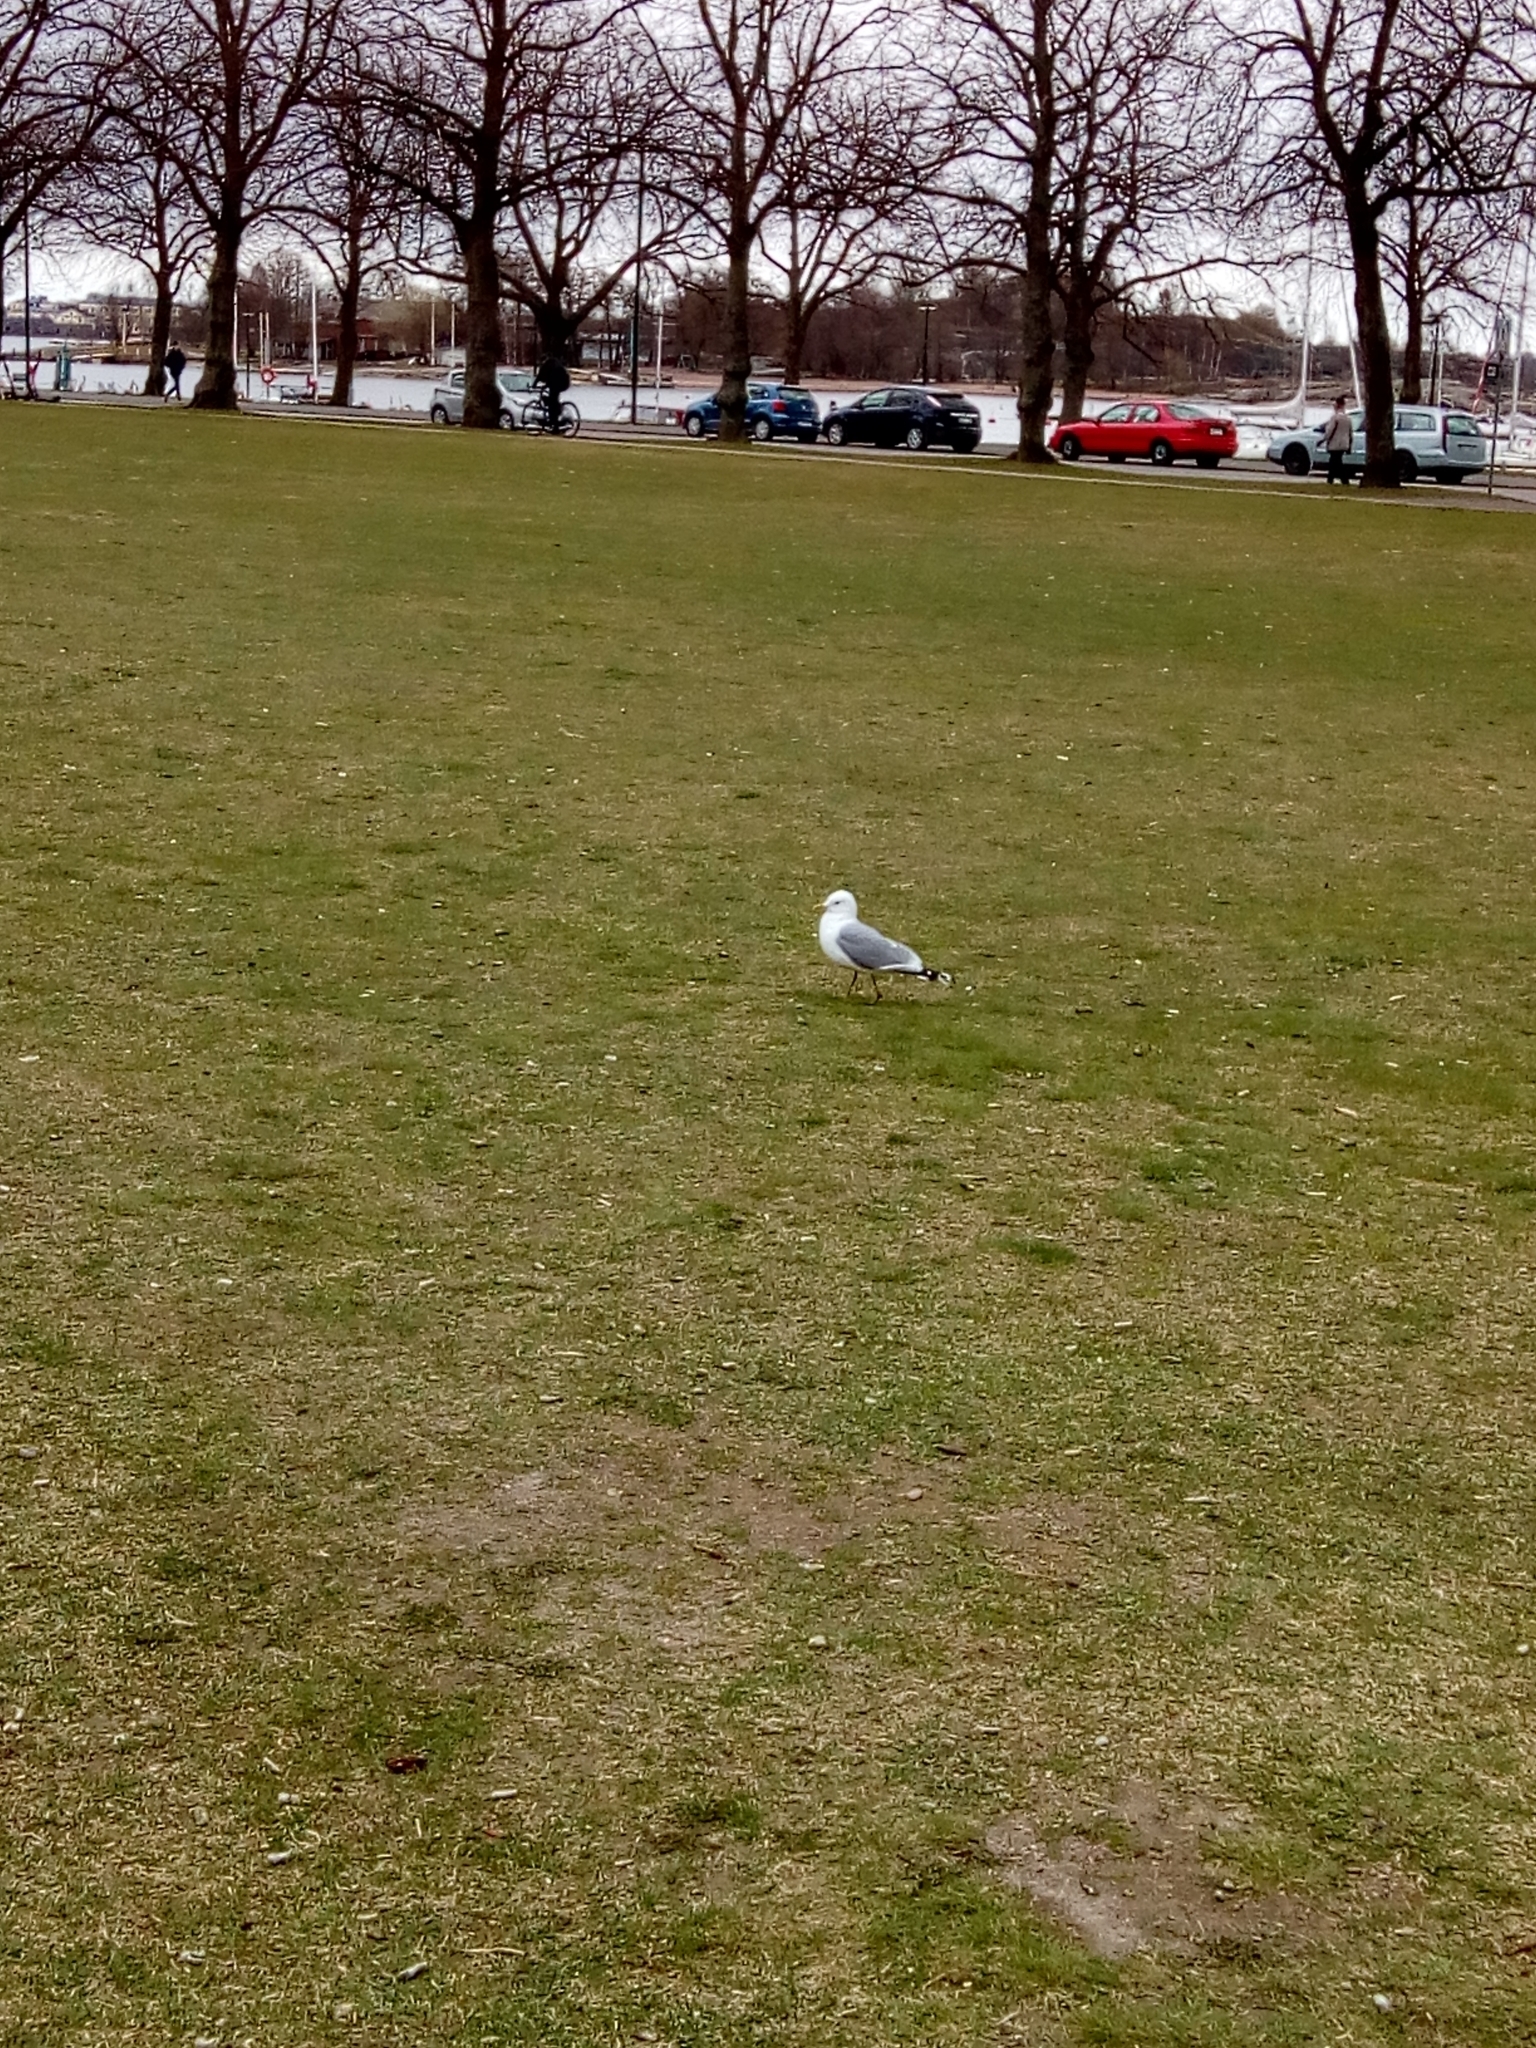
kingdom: Animalia
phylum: Chordata
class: Aves
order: Charadriiformes
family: Laridae
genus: Larus
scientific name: Larus canus
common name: Mew gull
